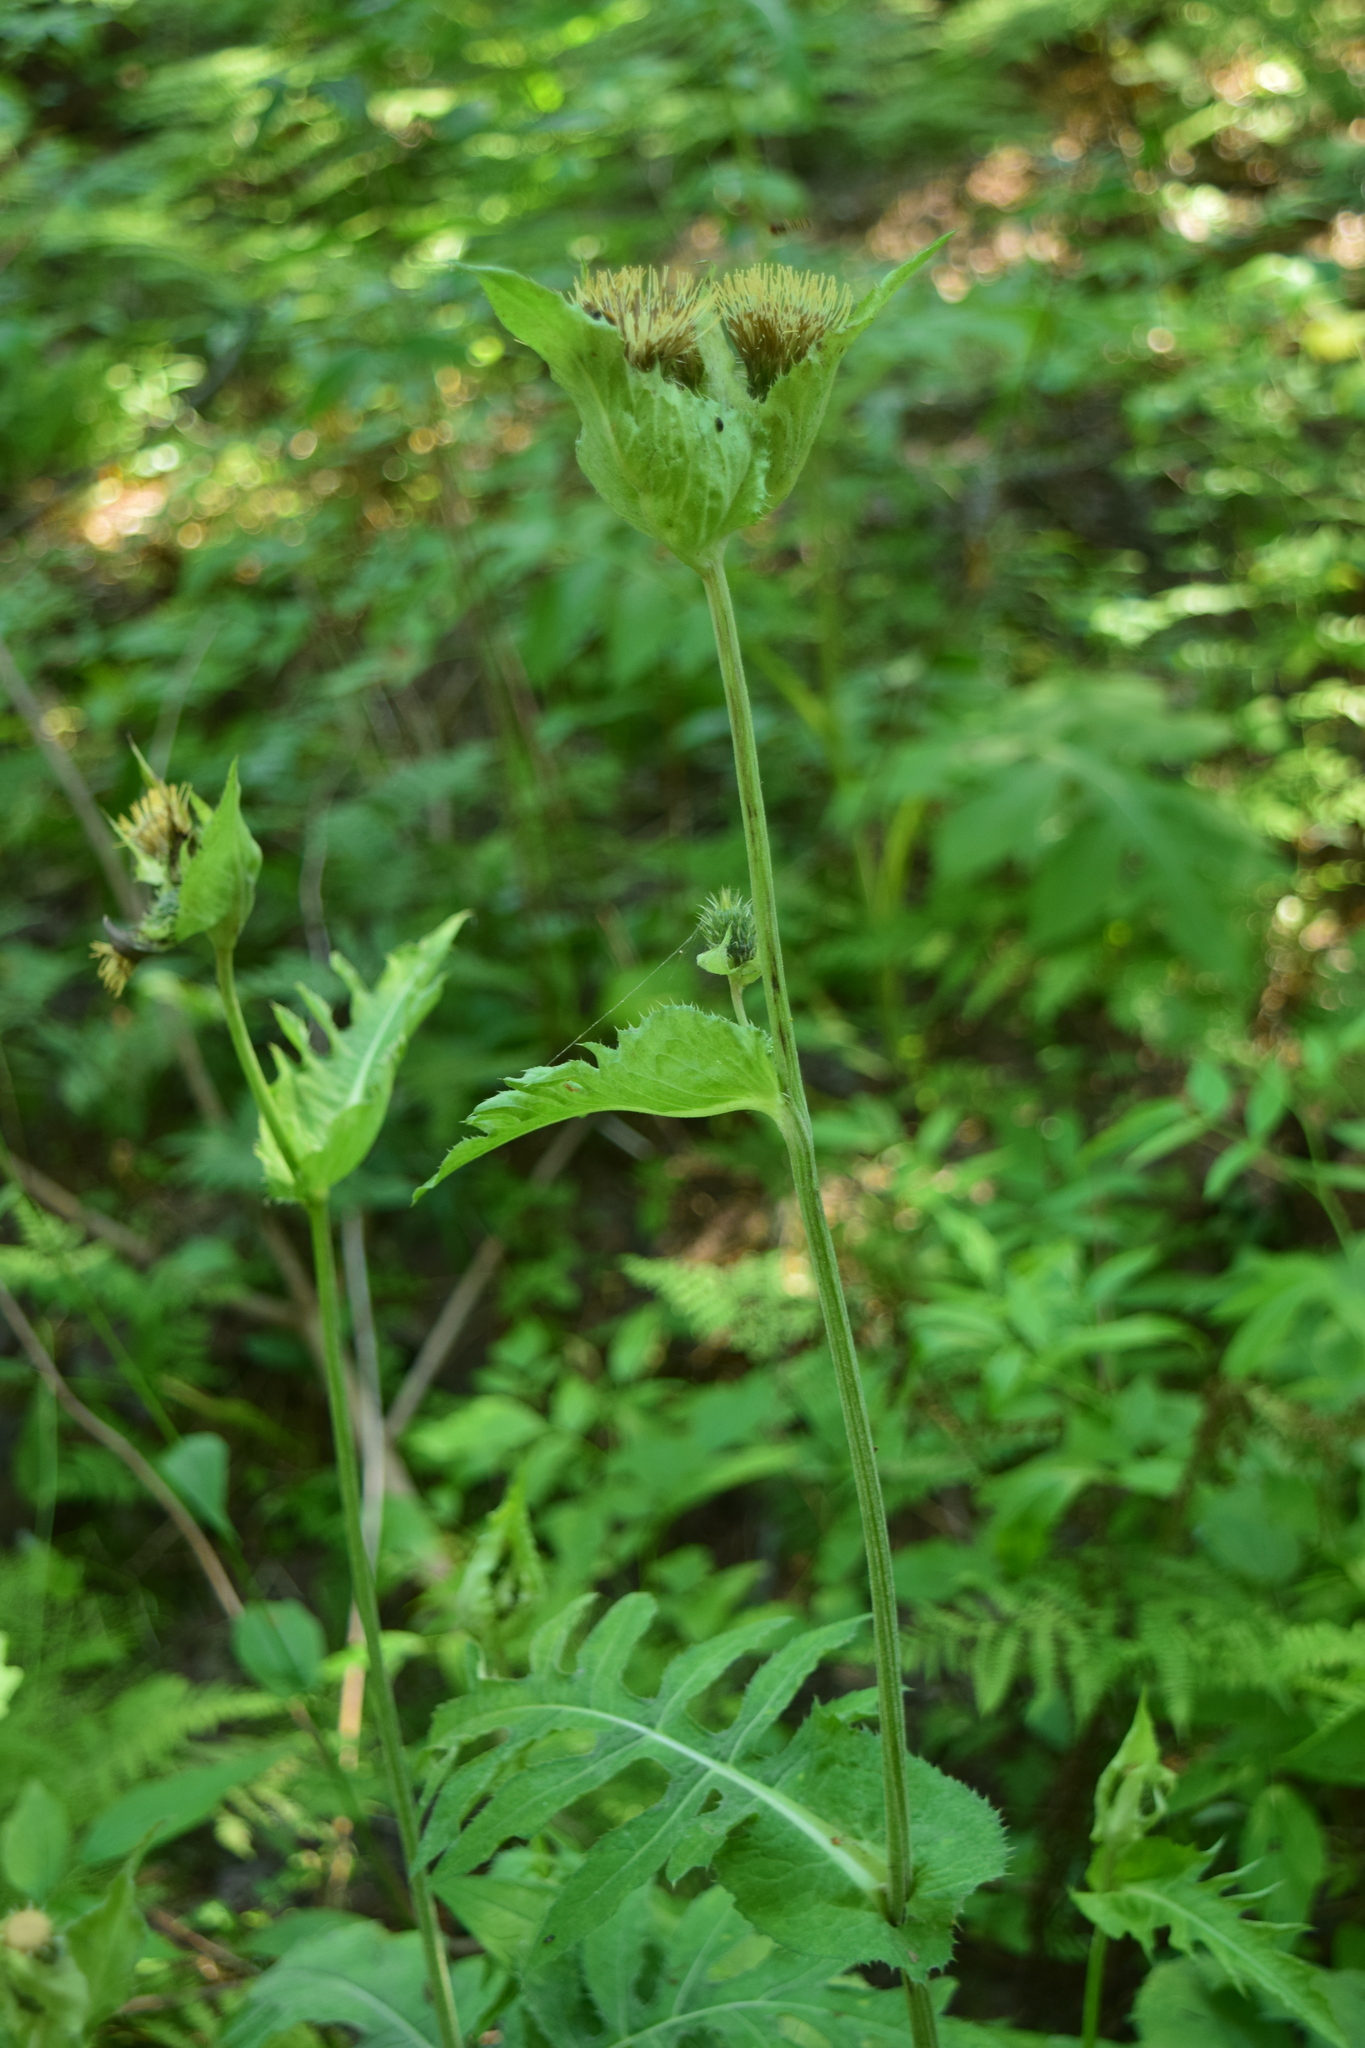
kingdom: Plantae
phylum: Tracheophyta
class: Magnoliopsida
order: Asterales
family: Asteraceae
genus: Cirsium
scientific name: Cirsium oleraceum
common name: Cabbage thistle
